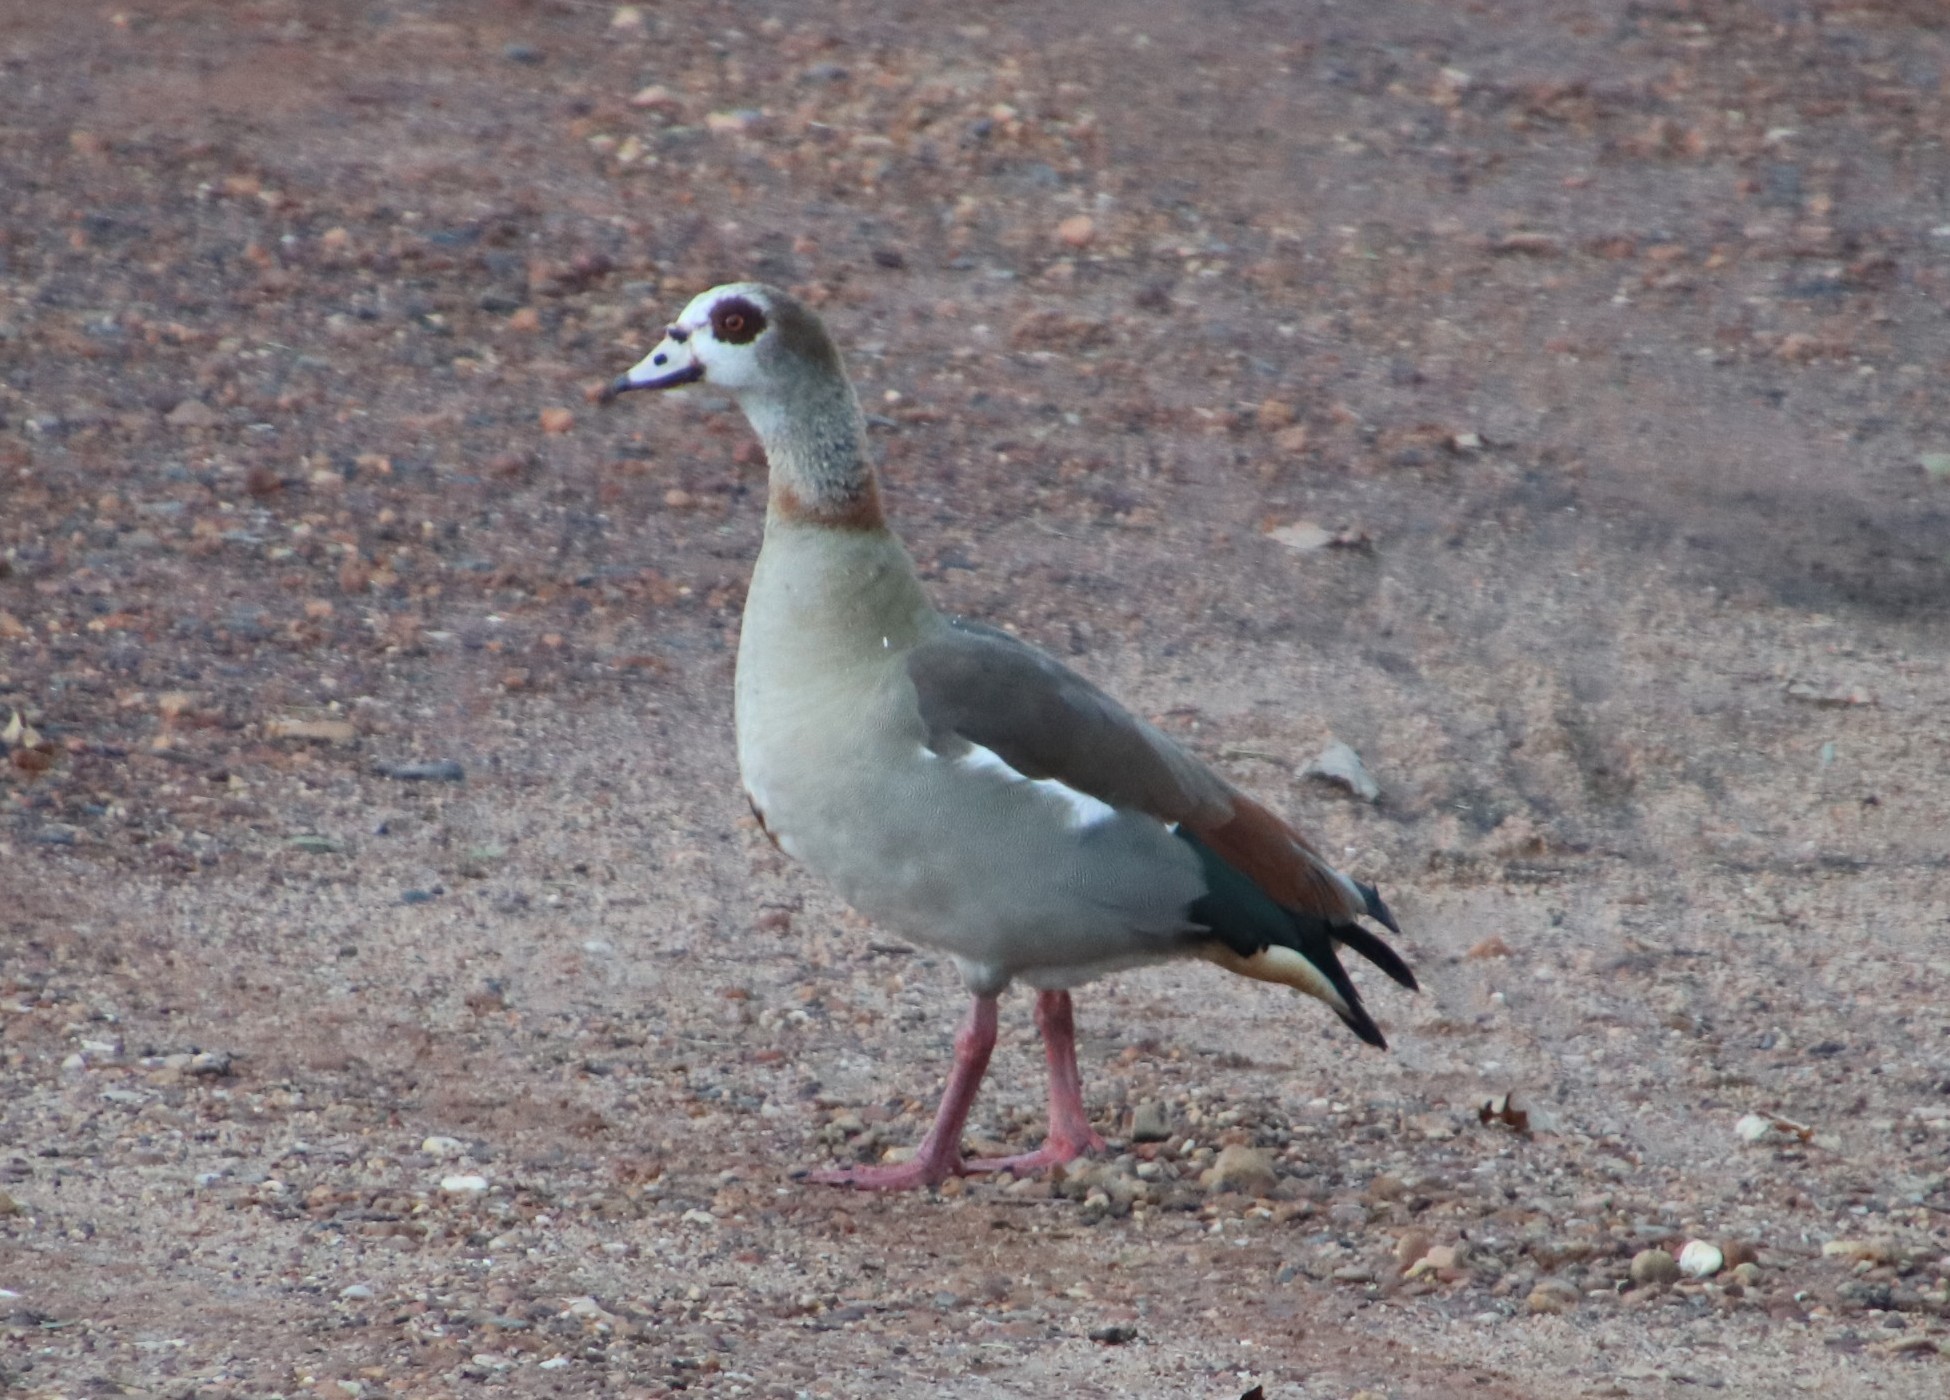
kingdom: Animalia
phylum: Chordata
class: Aves
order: Anseriformes
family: Anatidae
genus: Alopochen
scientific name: Alopochen aegyptiaca
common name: Egyptian goose
